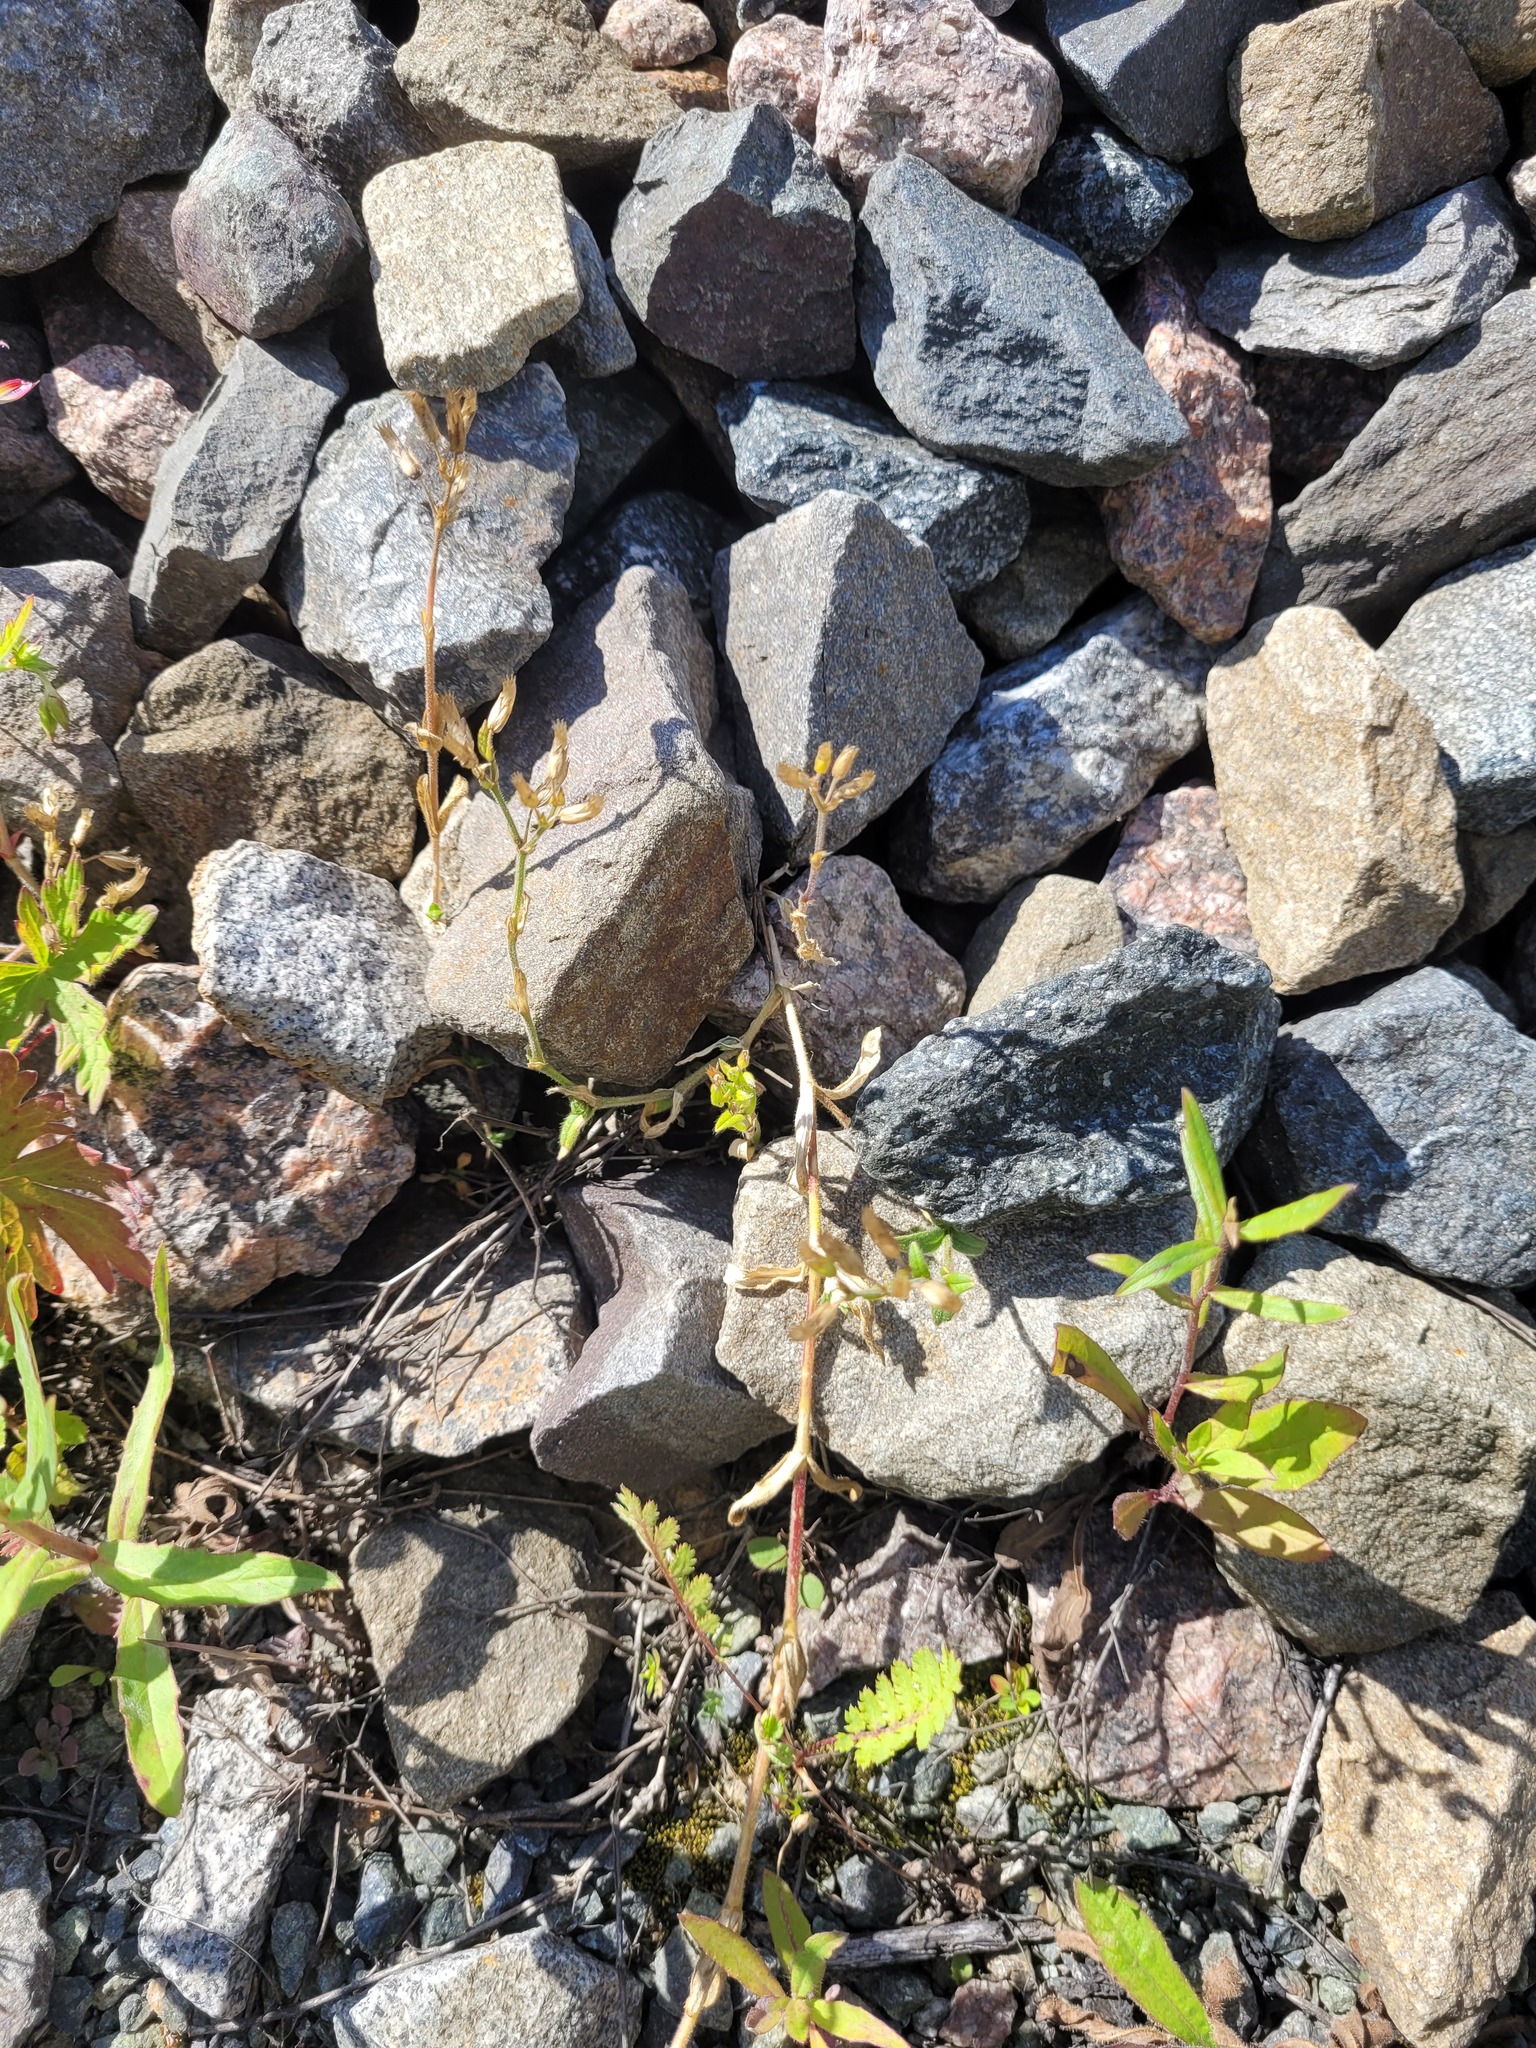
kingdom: Plantae
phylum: Tracheophyta
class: Magnoliopsida
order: Caryophyllales
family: Caryophyllaceae
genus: Cerastium
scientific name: Cerastium holosteoides
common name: Big chickweed
